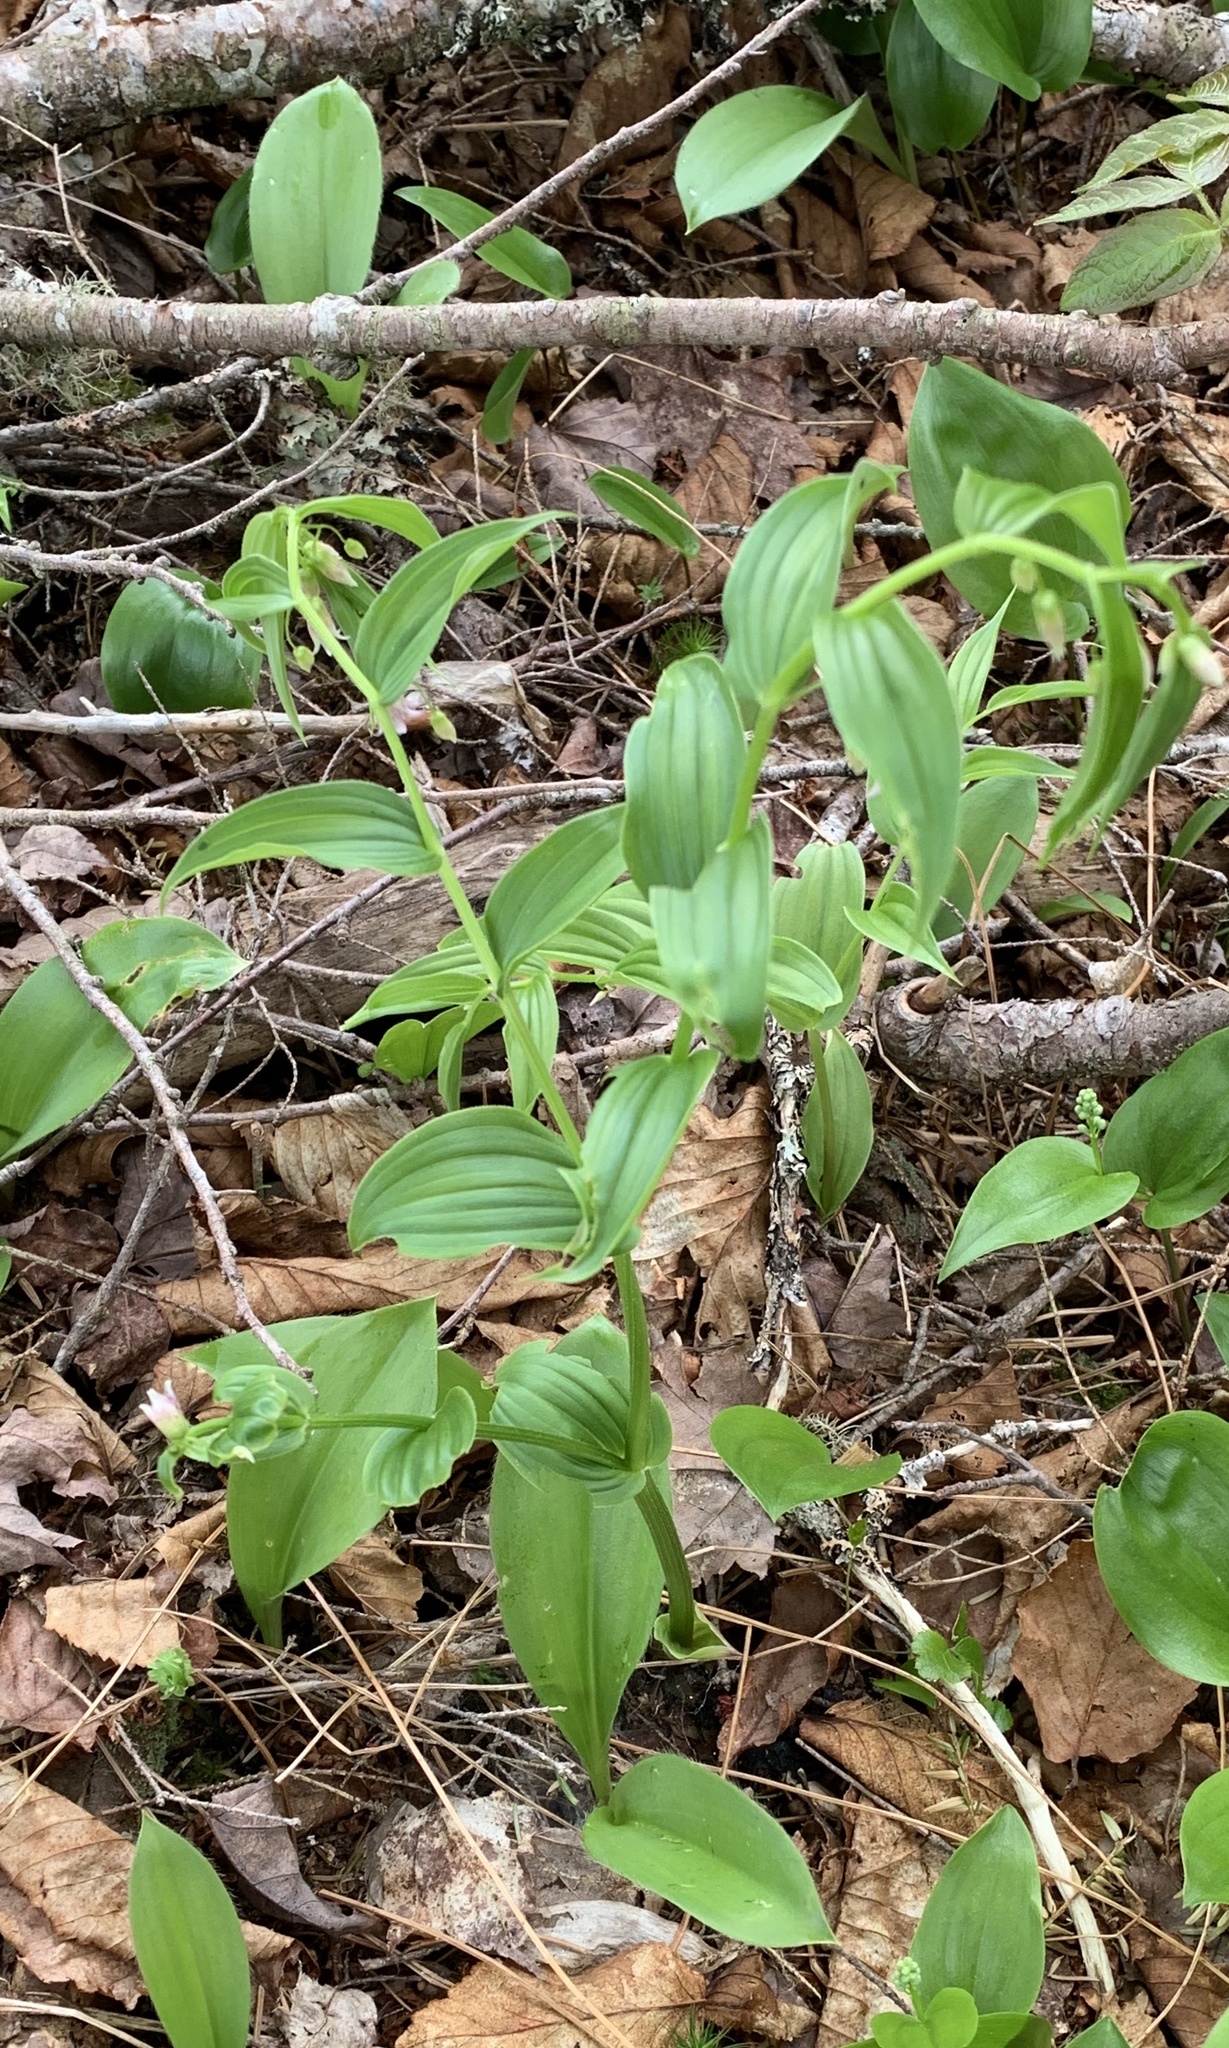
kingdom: Plantae
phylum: Tracheophyta
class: Liliopsida
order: Liliales
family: Liliaceae
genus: Streptopus
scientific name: Streptopus lanceolatus
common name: Rose mandarin
